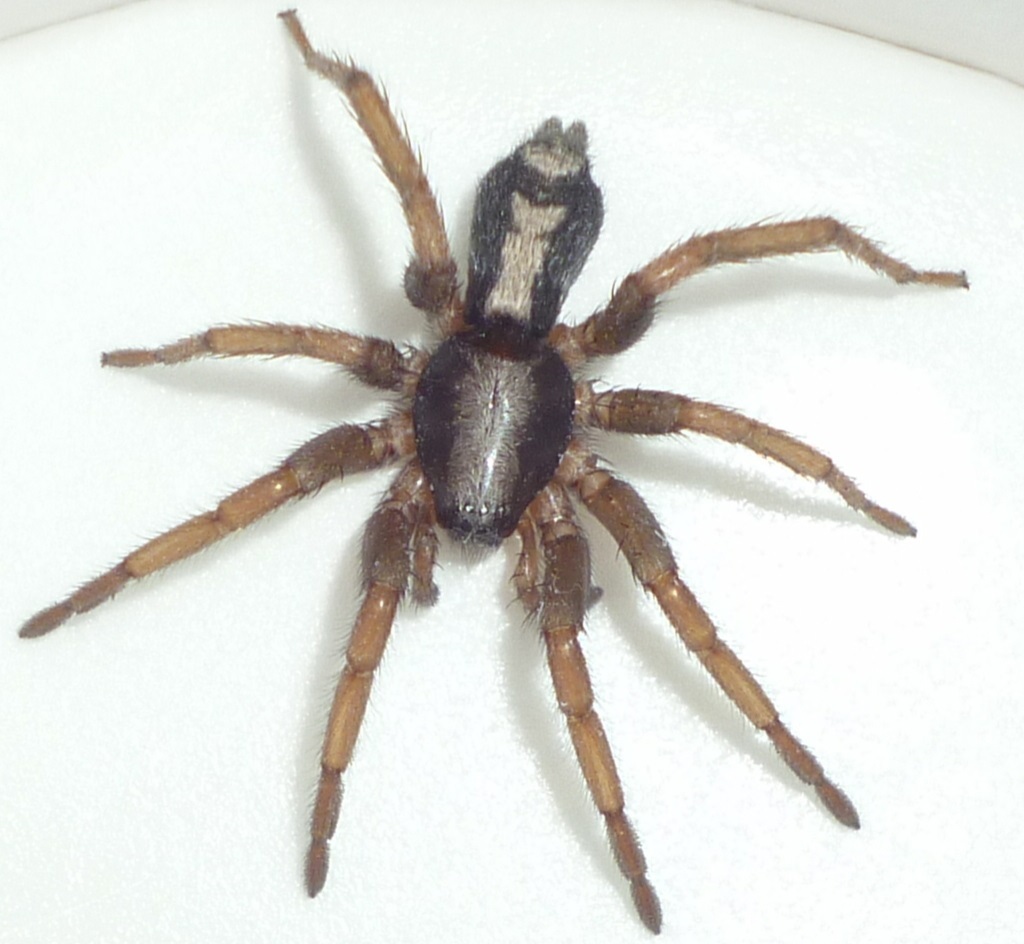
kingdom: Animalia
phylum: Arthropoda
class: Arachnida
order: Araneae
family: Gnaphosidae
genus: Herpyllus
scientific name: Herpyllus ecclesiasticus
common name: Eastern parson spider
